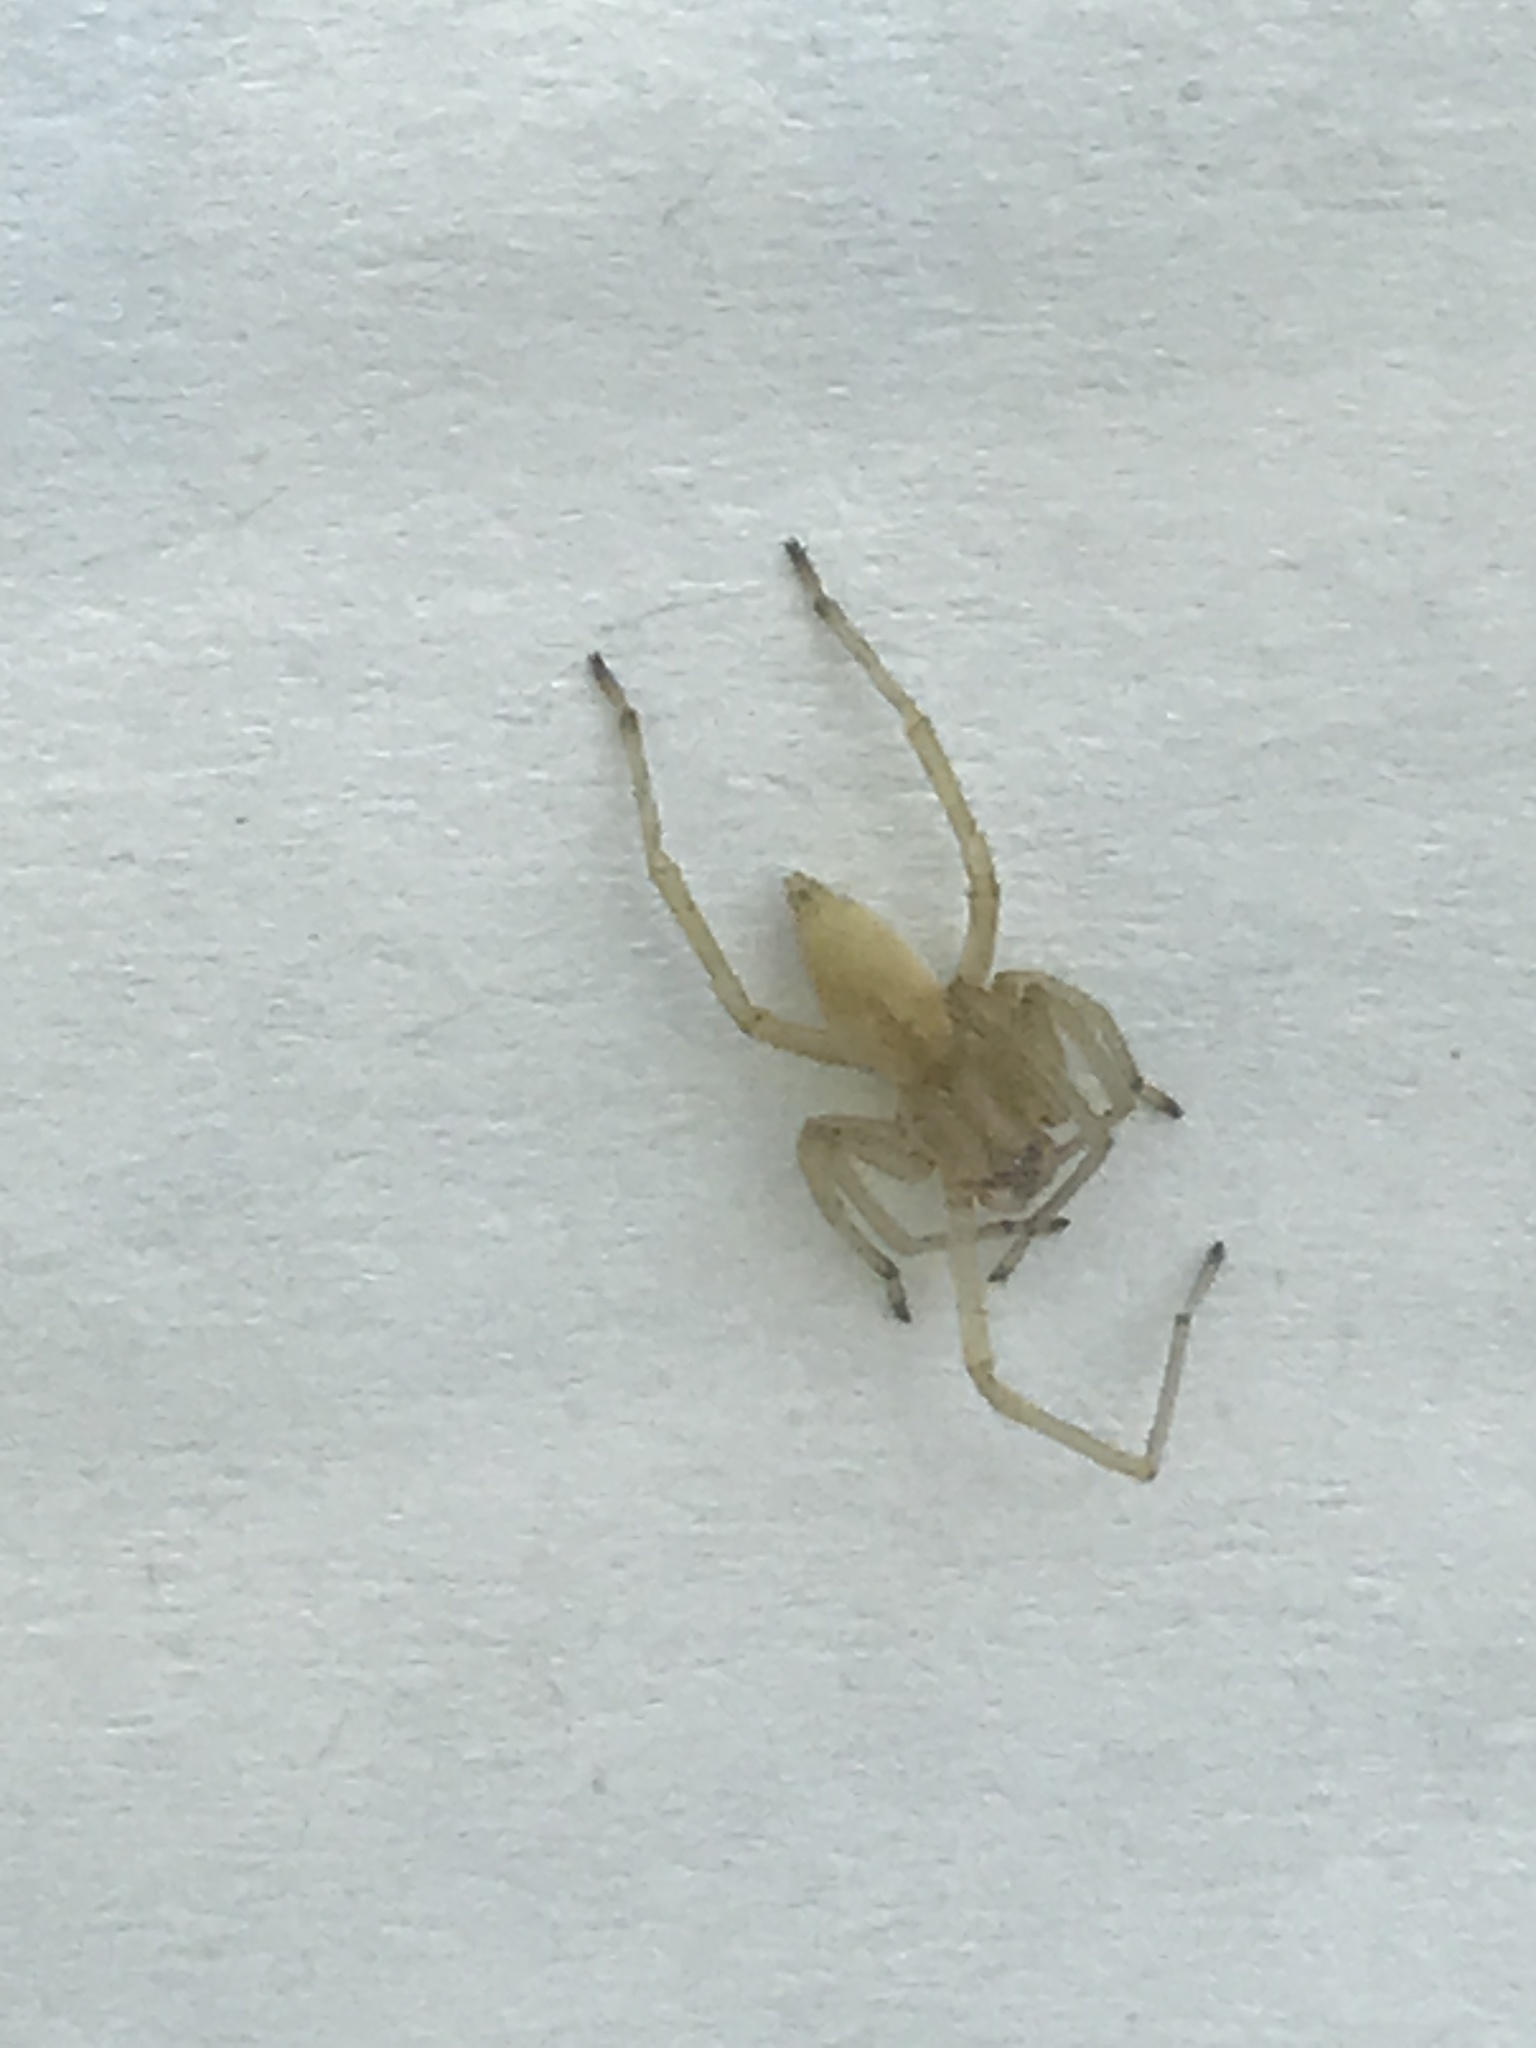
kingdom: Animalia
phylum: Arthropoda
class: Arachnida
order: Araneae
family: Cheiracanthiidae
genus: Cheiracanthium
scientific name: Cheiracanthium mildei
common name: Northern yellow sac spider
